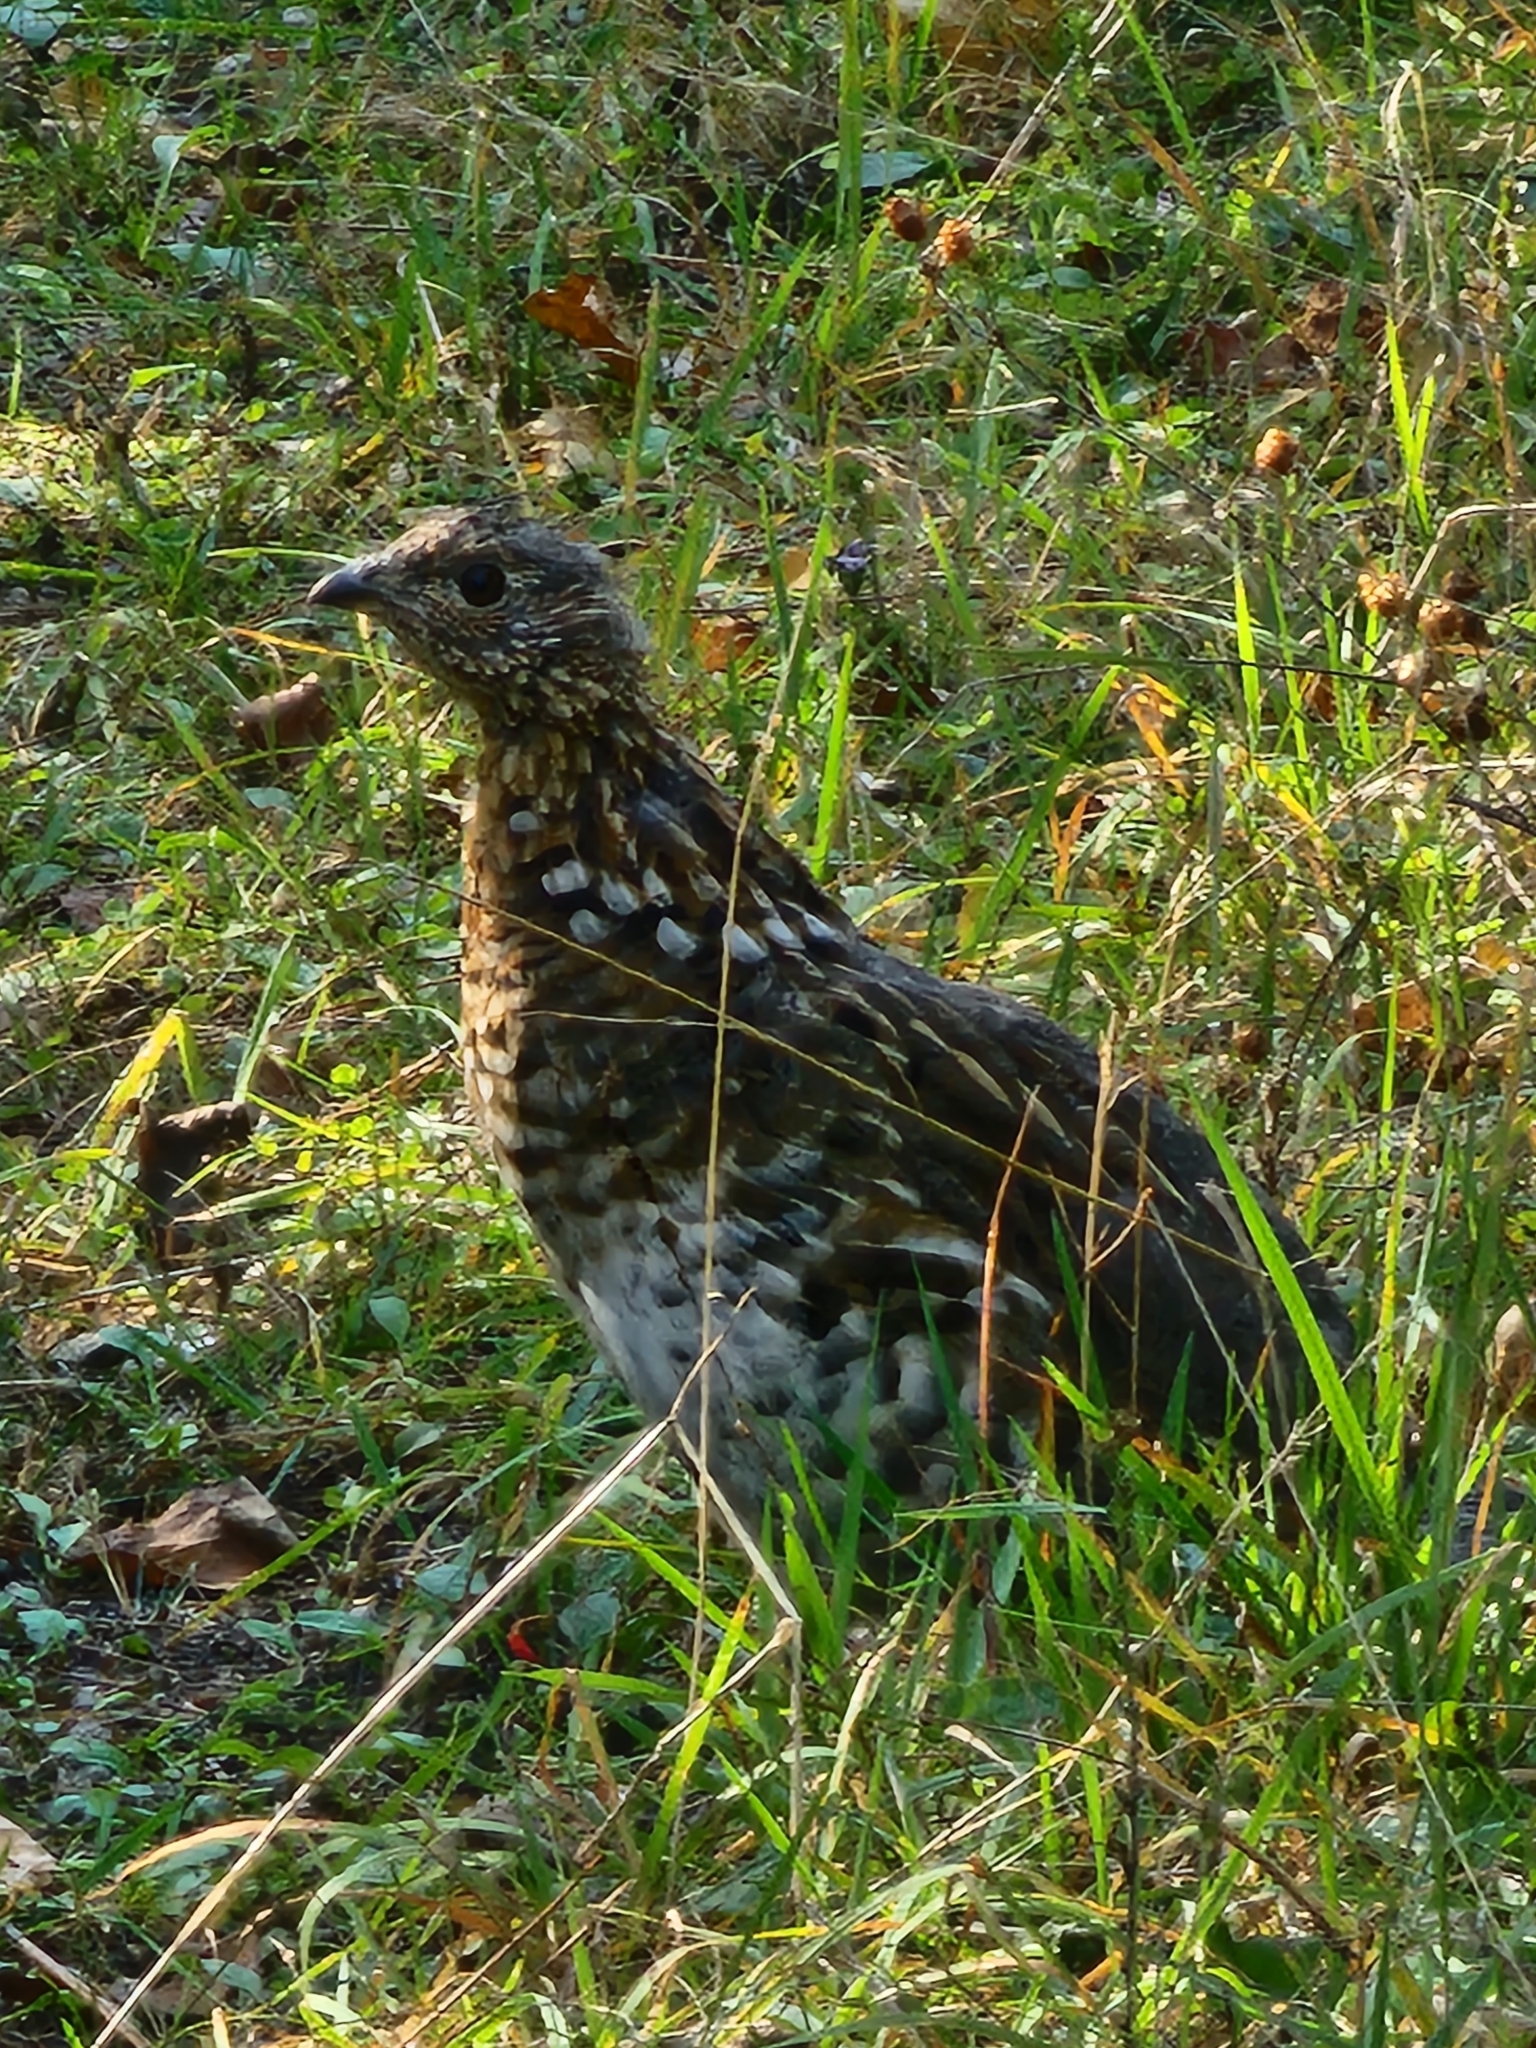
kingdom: Animalia
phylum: Chordata
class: Aves
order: Galliformes
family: Phasianidae
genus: Bonasa
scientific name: Bonasa umbellus
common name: Ruffed grouse
